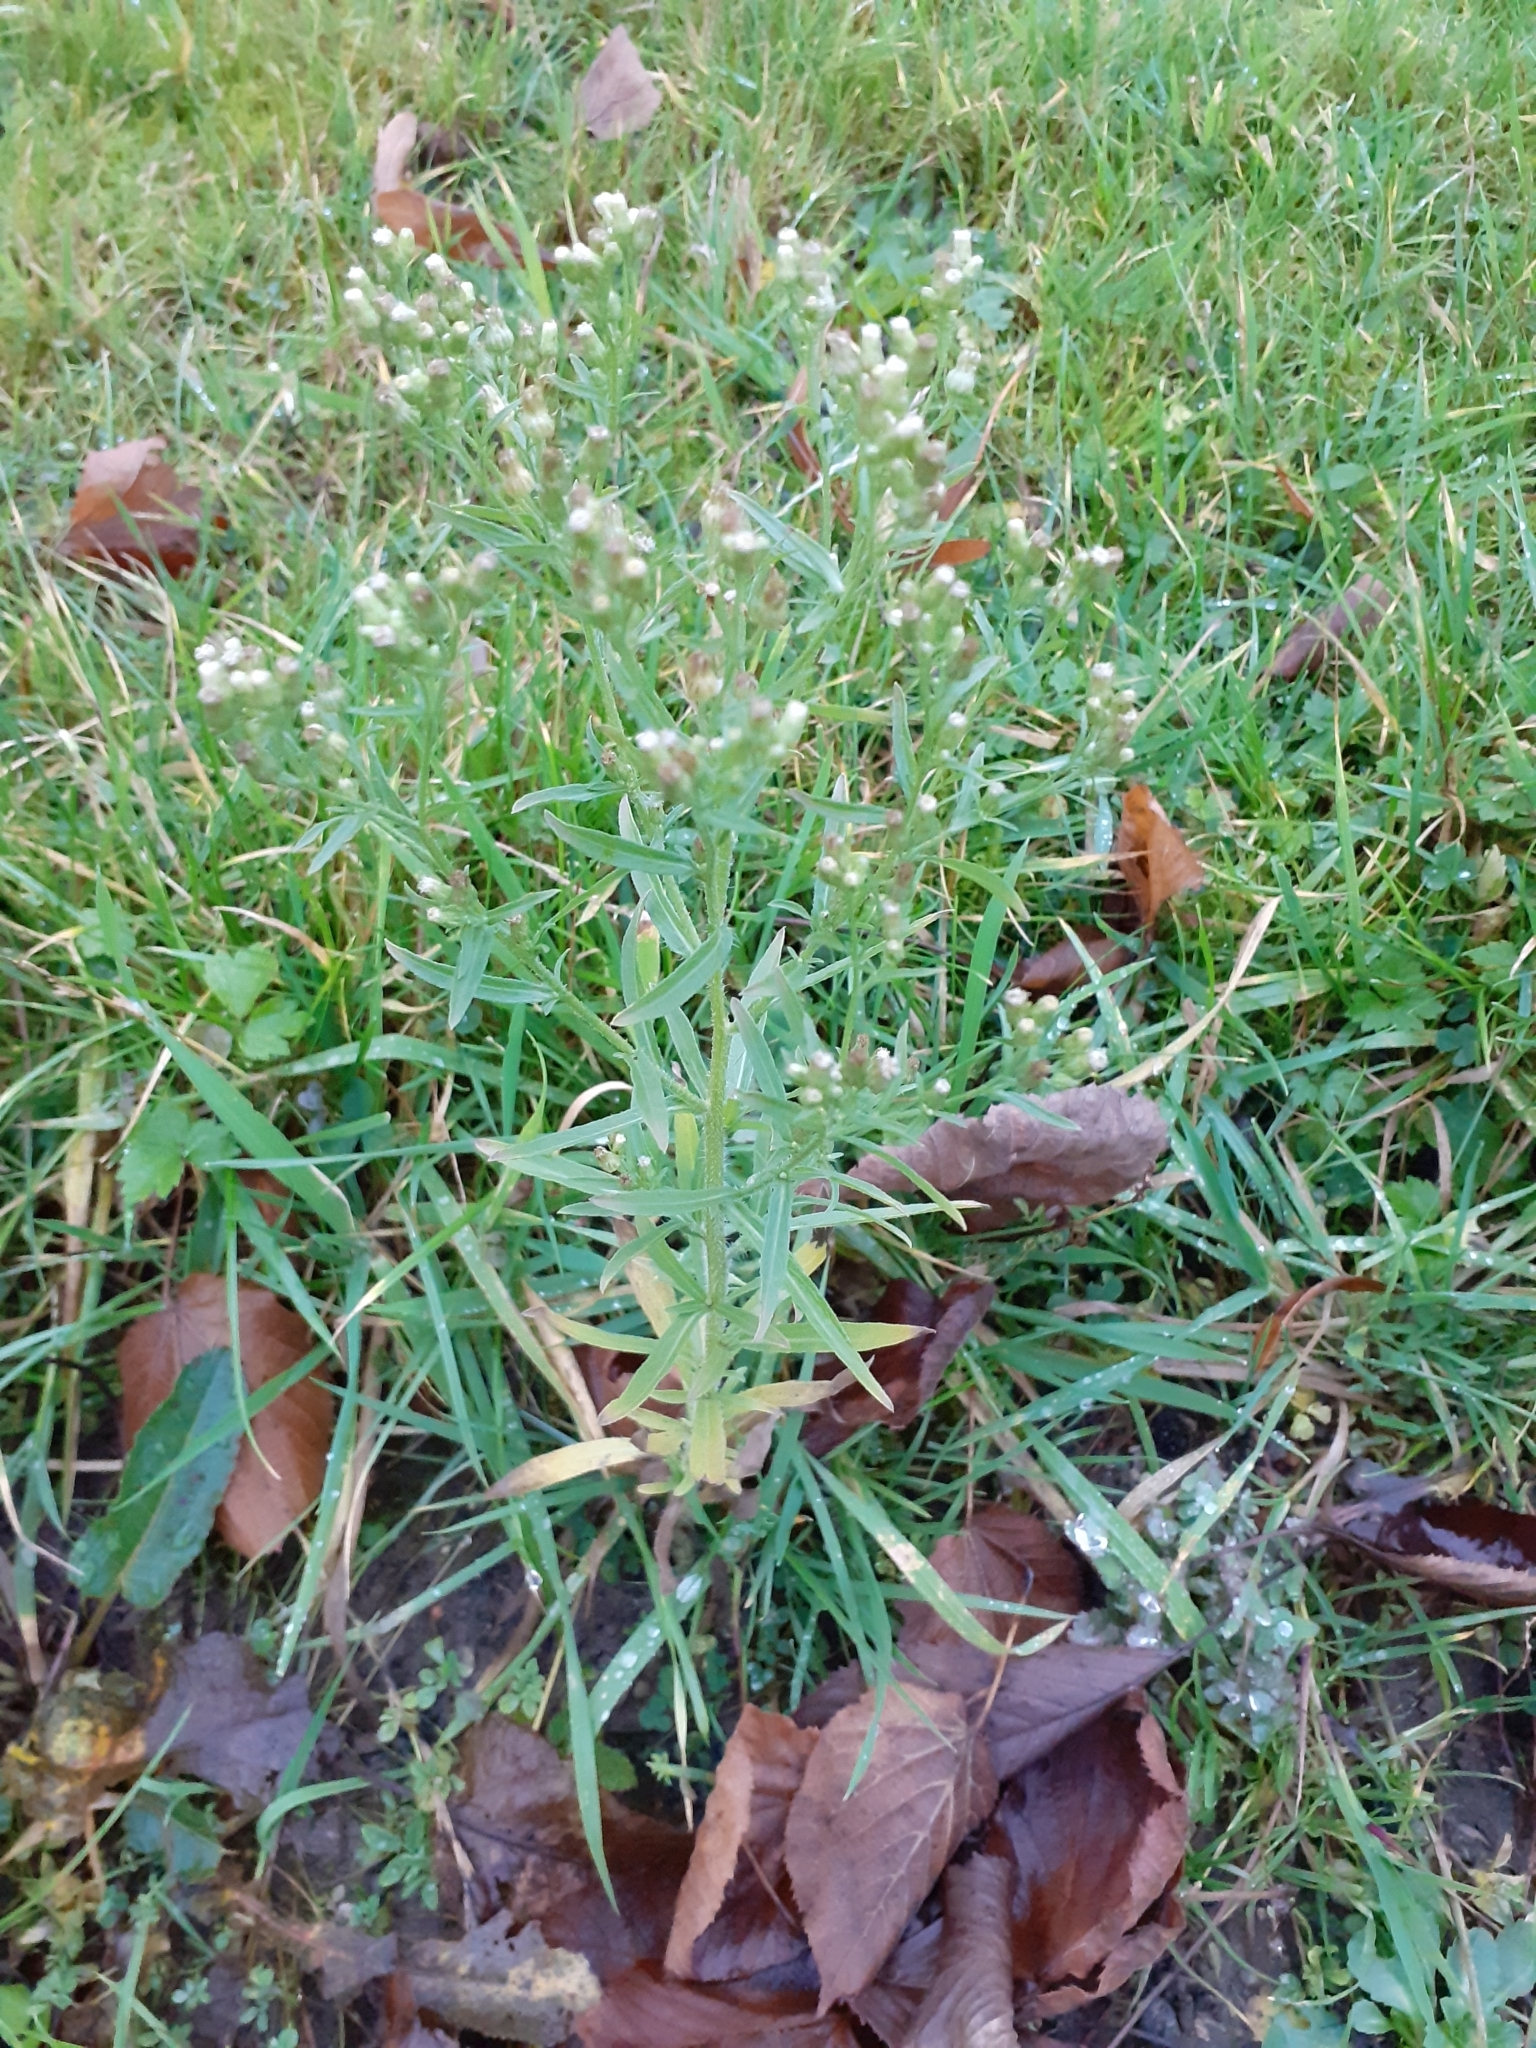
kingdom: Plantae
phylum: Tracheophyta
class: Magnoliopsida
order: Asterales
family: Asteraceae
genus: Erigeron
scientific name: Erigeron canadensis
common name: Canadian fleabane
